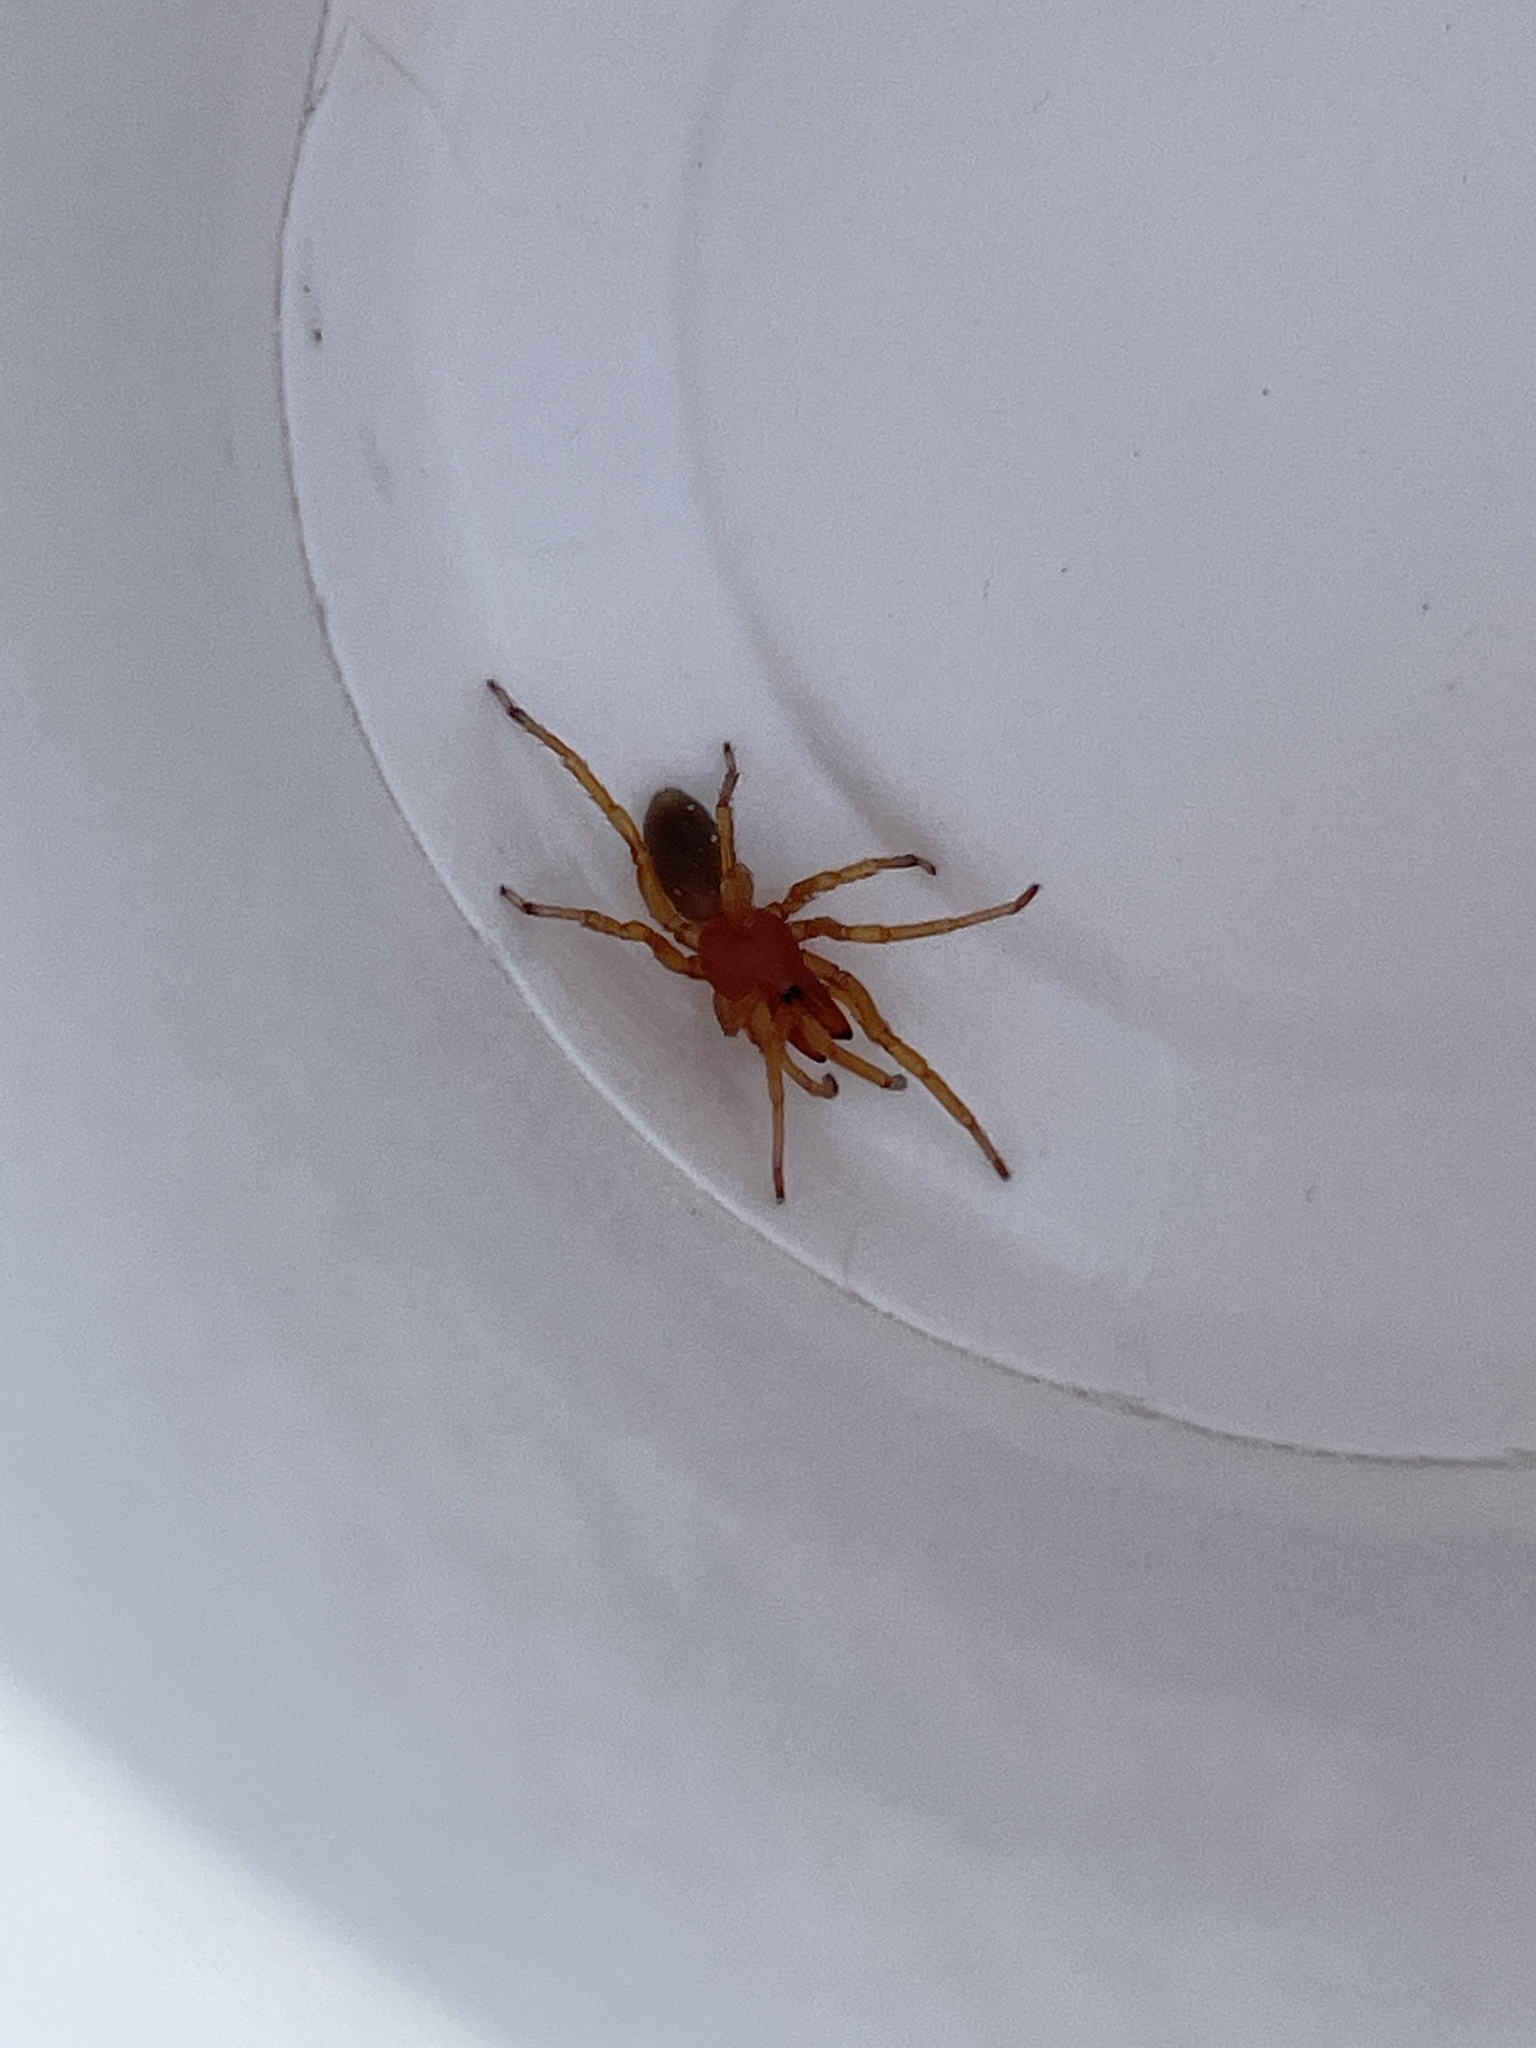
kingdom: Animalia
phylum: Arthropoda
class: Arachnida
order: Araneae
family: Dysderidae
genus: Dysdera
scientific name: Dysdera crocata
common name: Woodlouse spider
